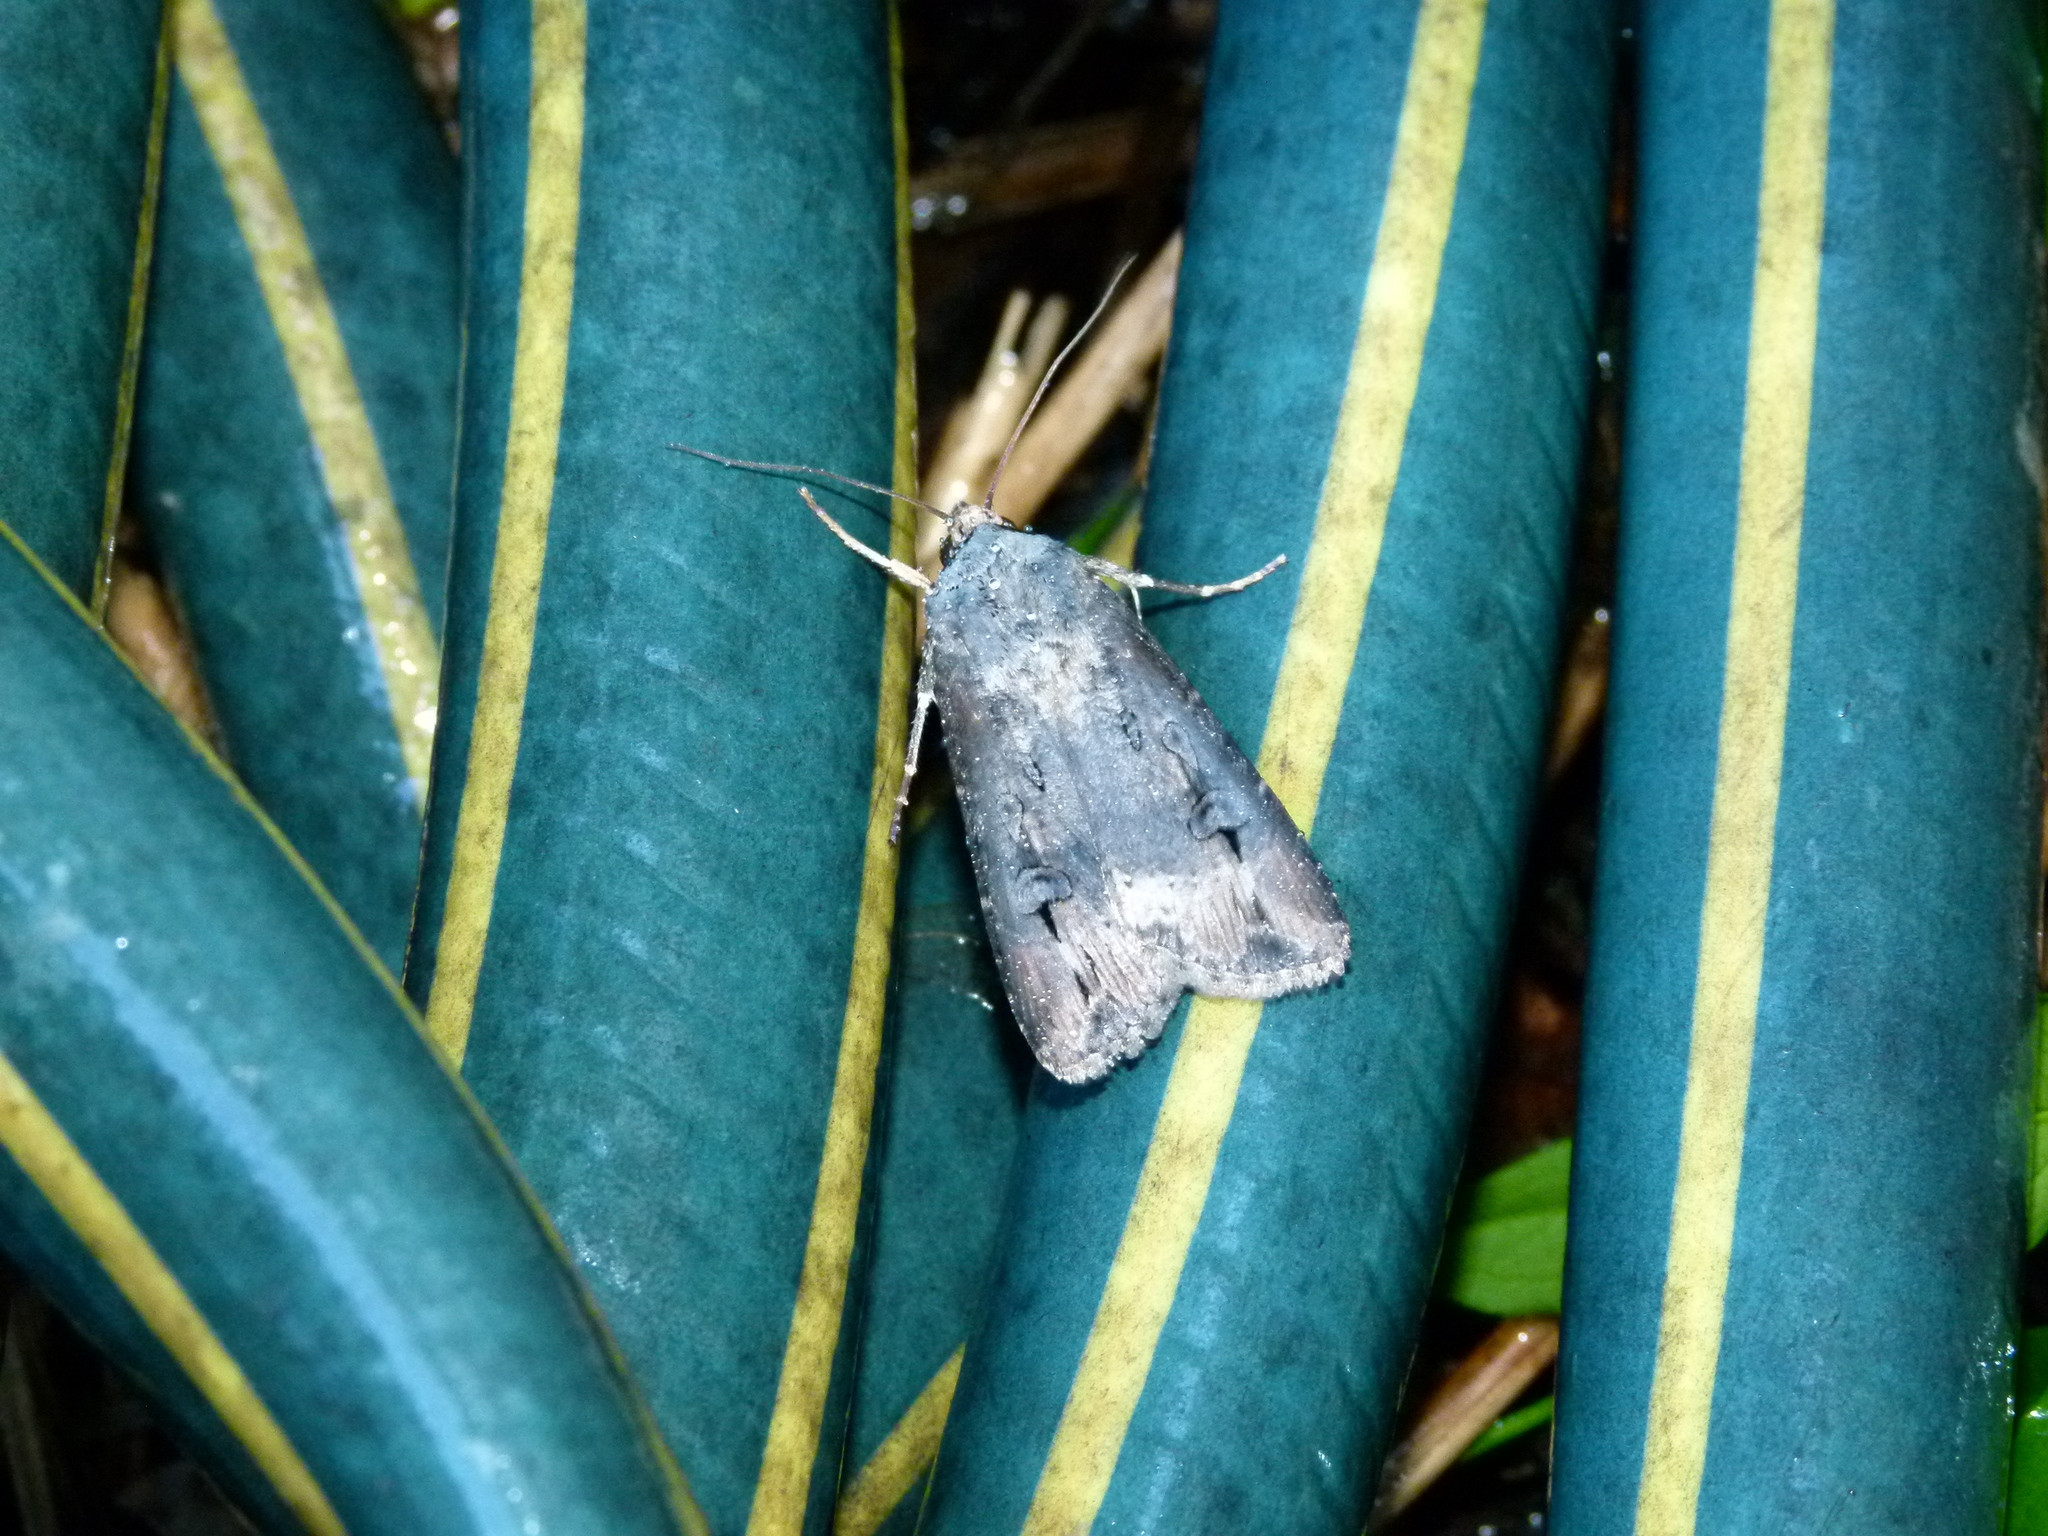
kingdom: Animalia
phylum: Arthropoda
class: Insecta
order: Lepidoptera
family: Noctuidae
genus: Agrotis
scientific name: Agrotis ipsilon
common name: Dark sword-grass
